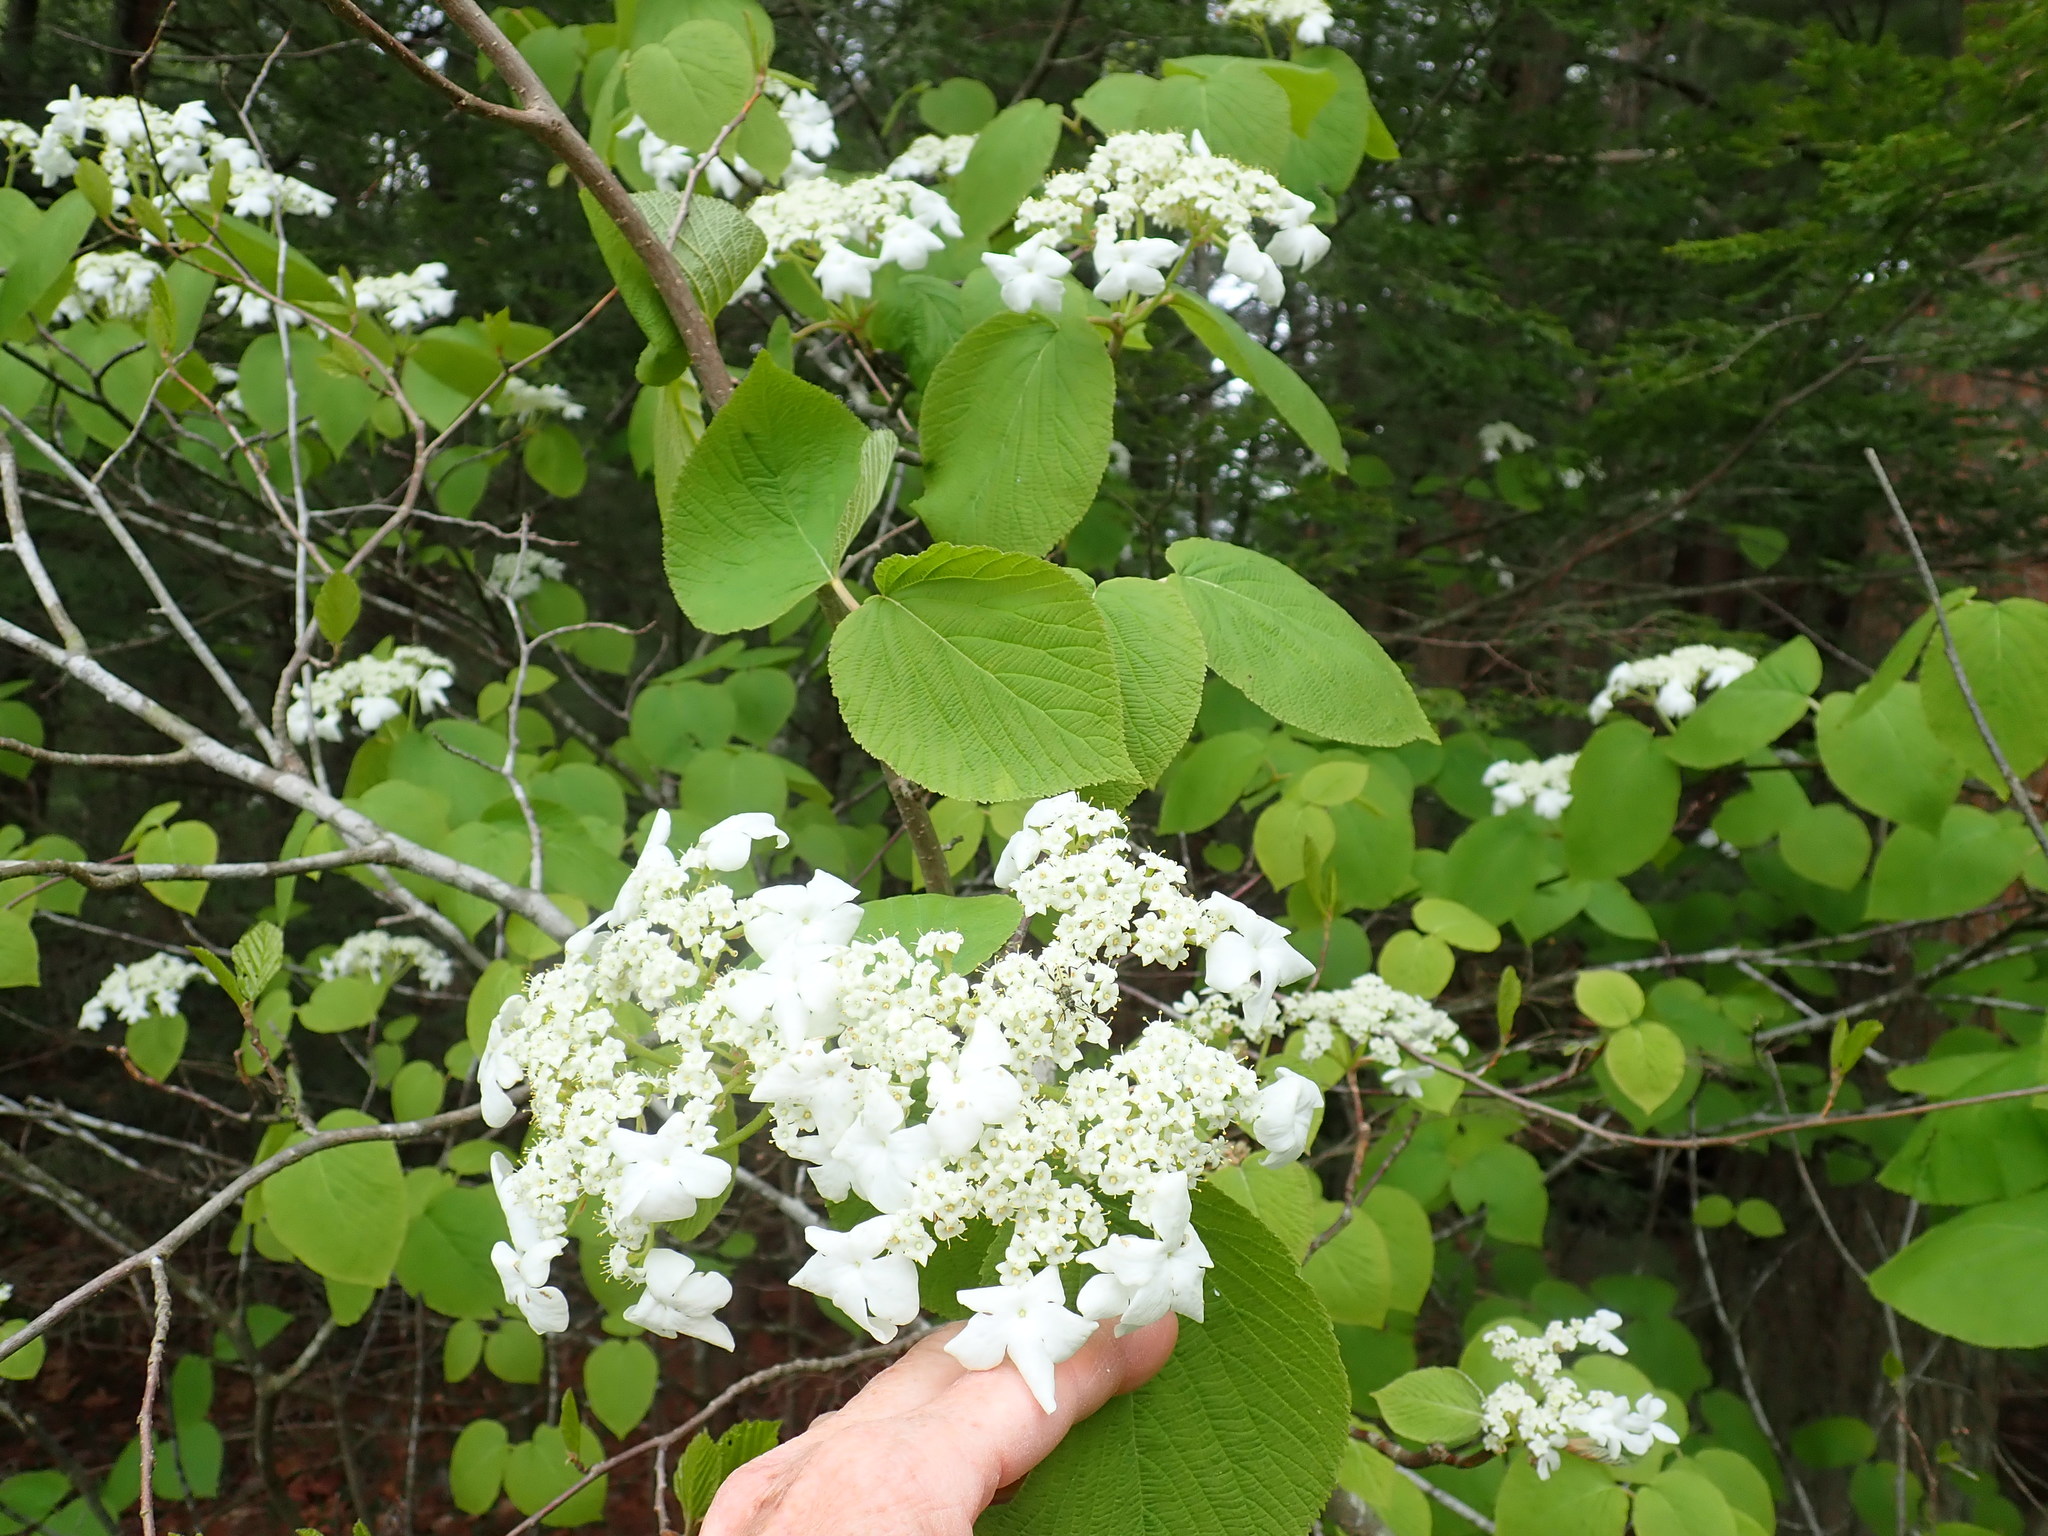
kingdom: Plantae
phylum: Tracheophyta
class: Magnoliopsida
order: Dipsacales
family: Viburnaceae
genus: Viburnum
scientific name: Viburnum lantanoides
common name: Hobblebush
